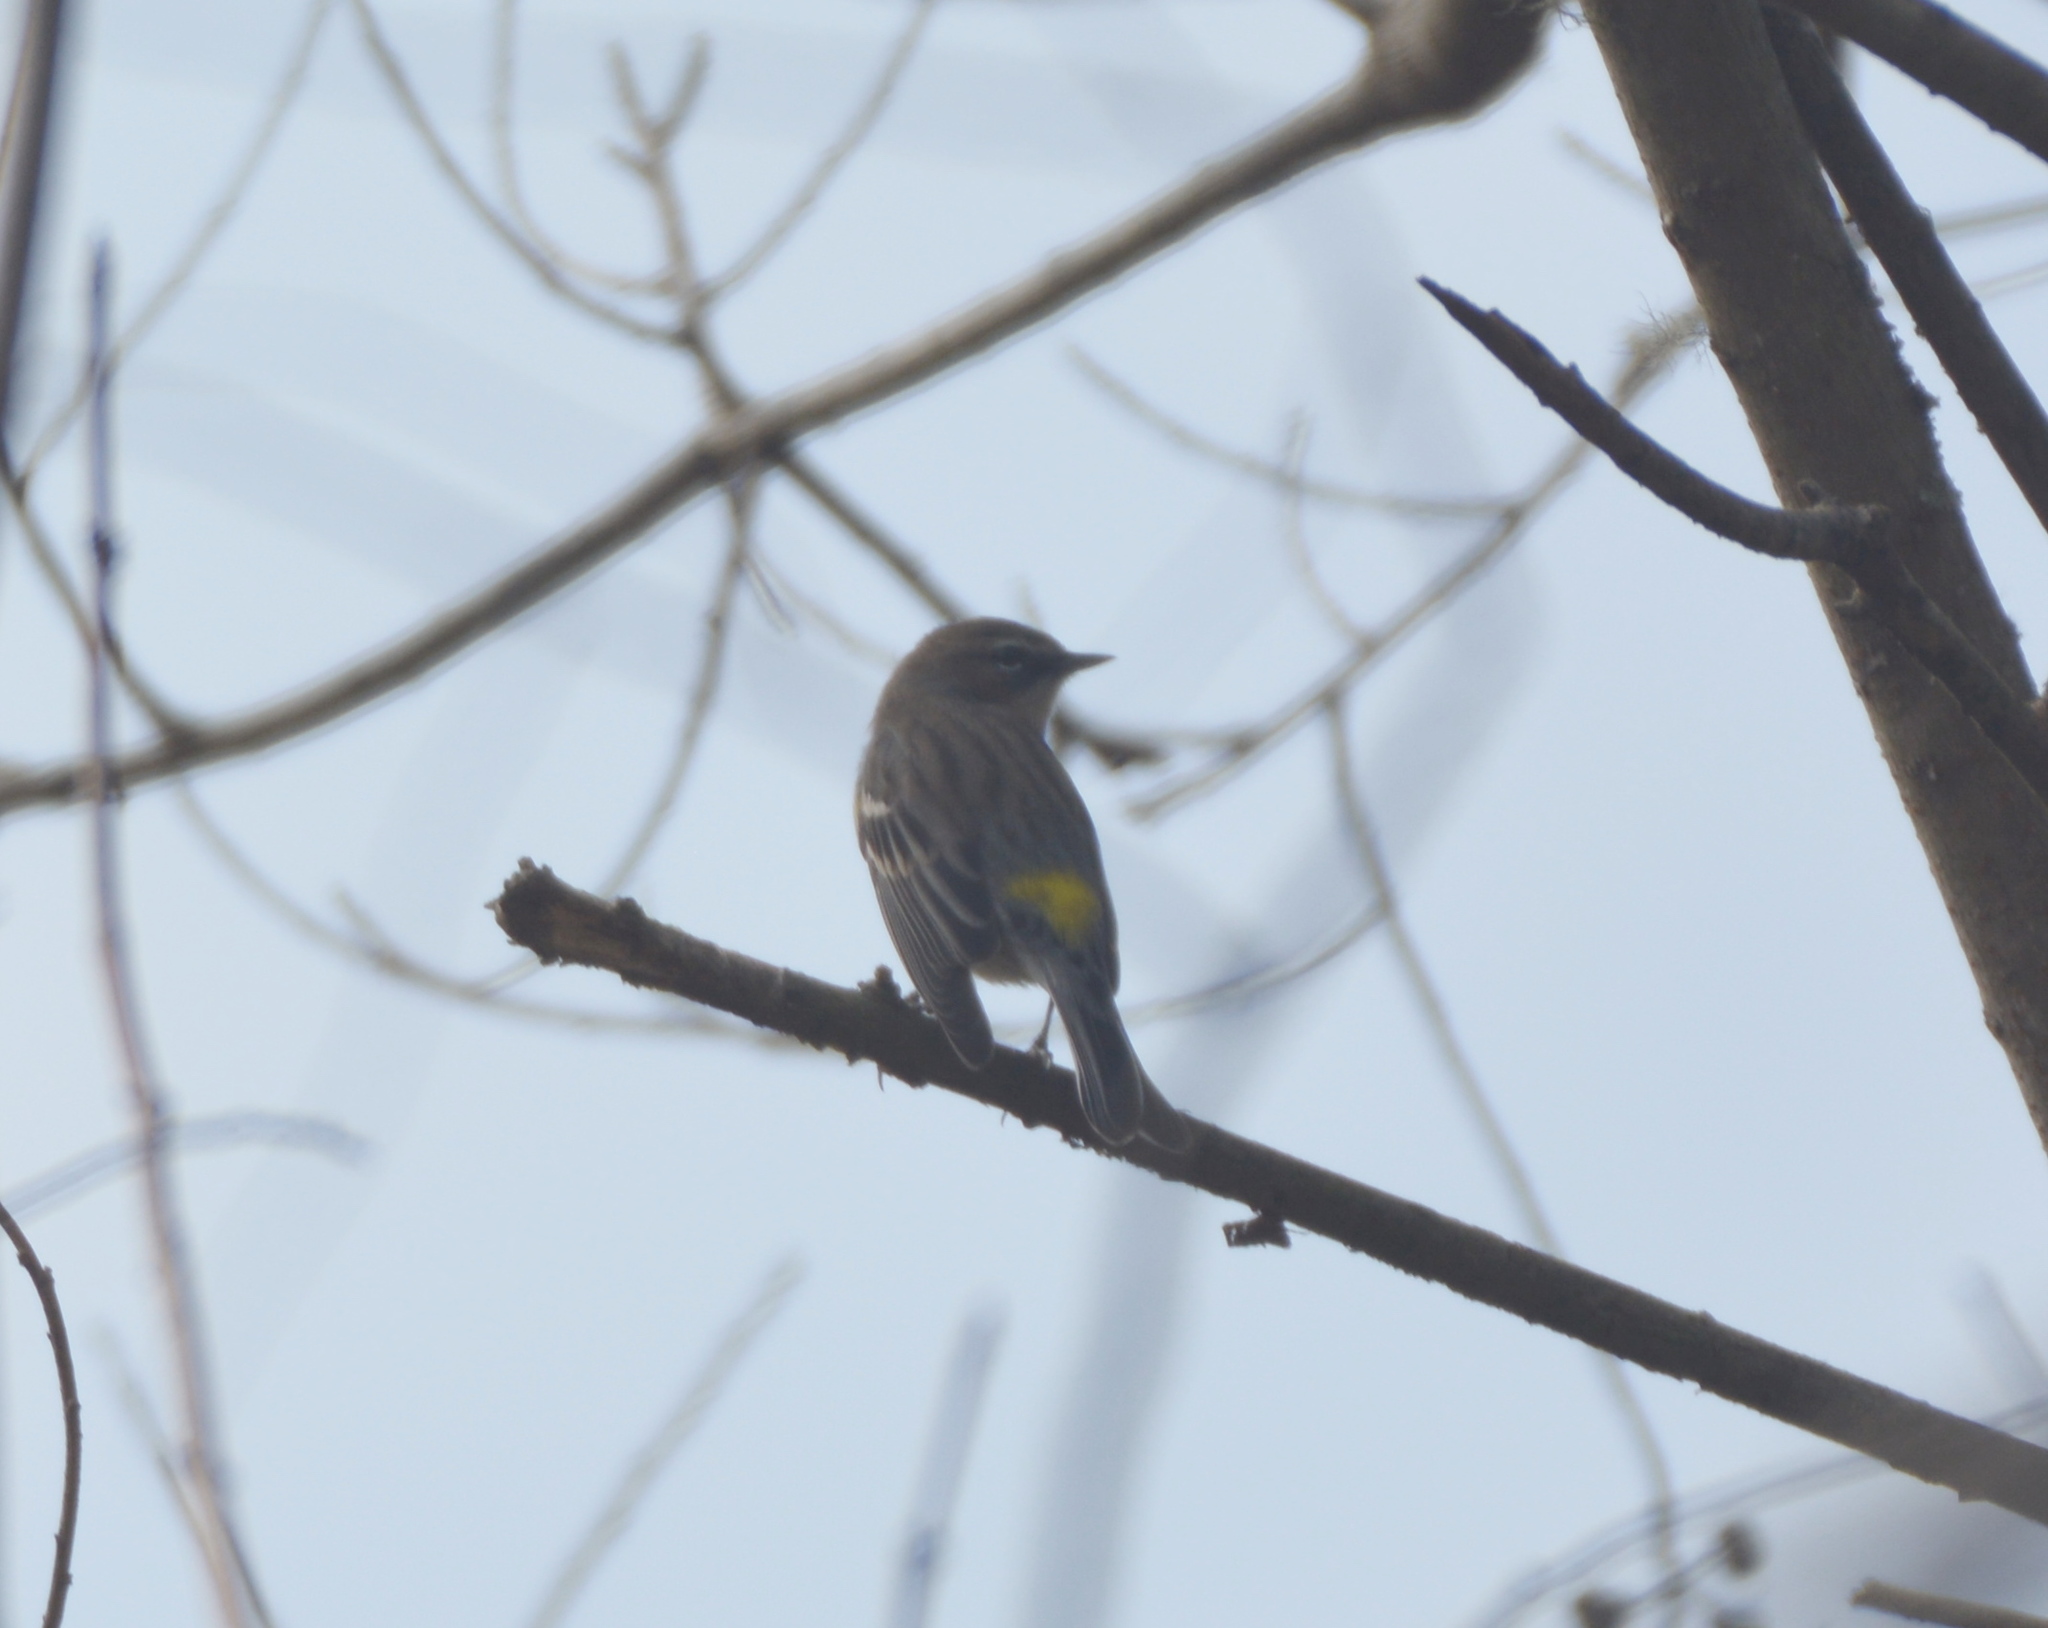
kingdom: Animalia
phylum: Chordata
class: Aves
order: Passeriformes
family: Parulidae
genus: Setophaga
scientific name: Setophaga coronata
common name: Myrtle warbler
